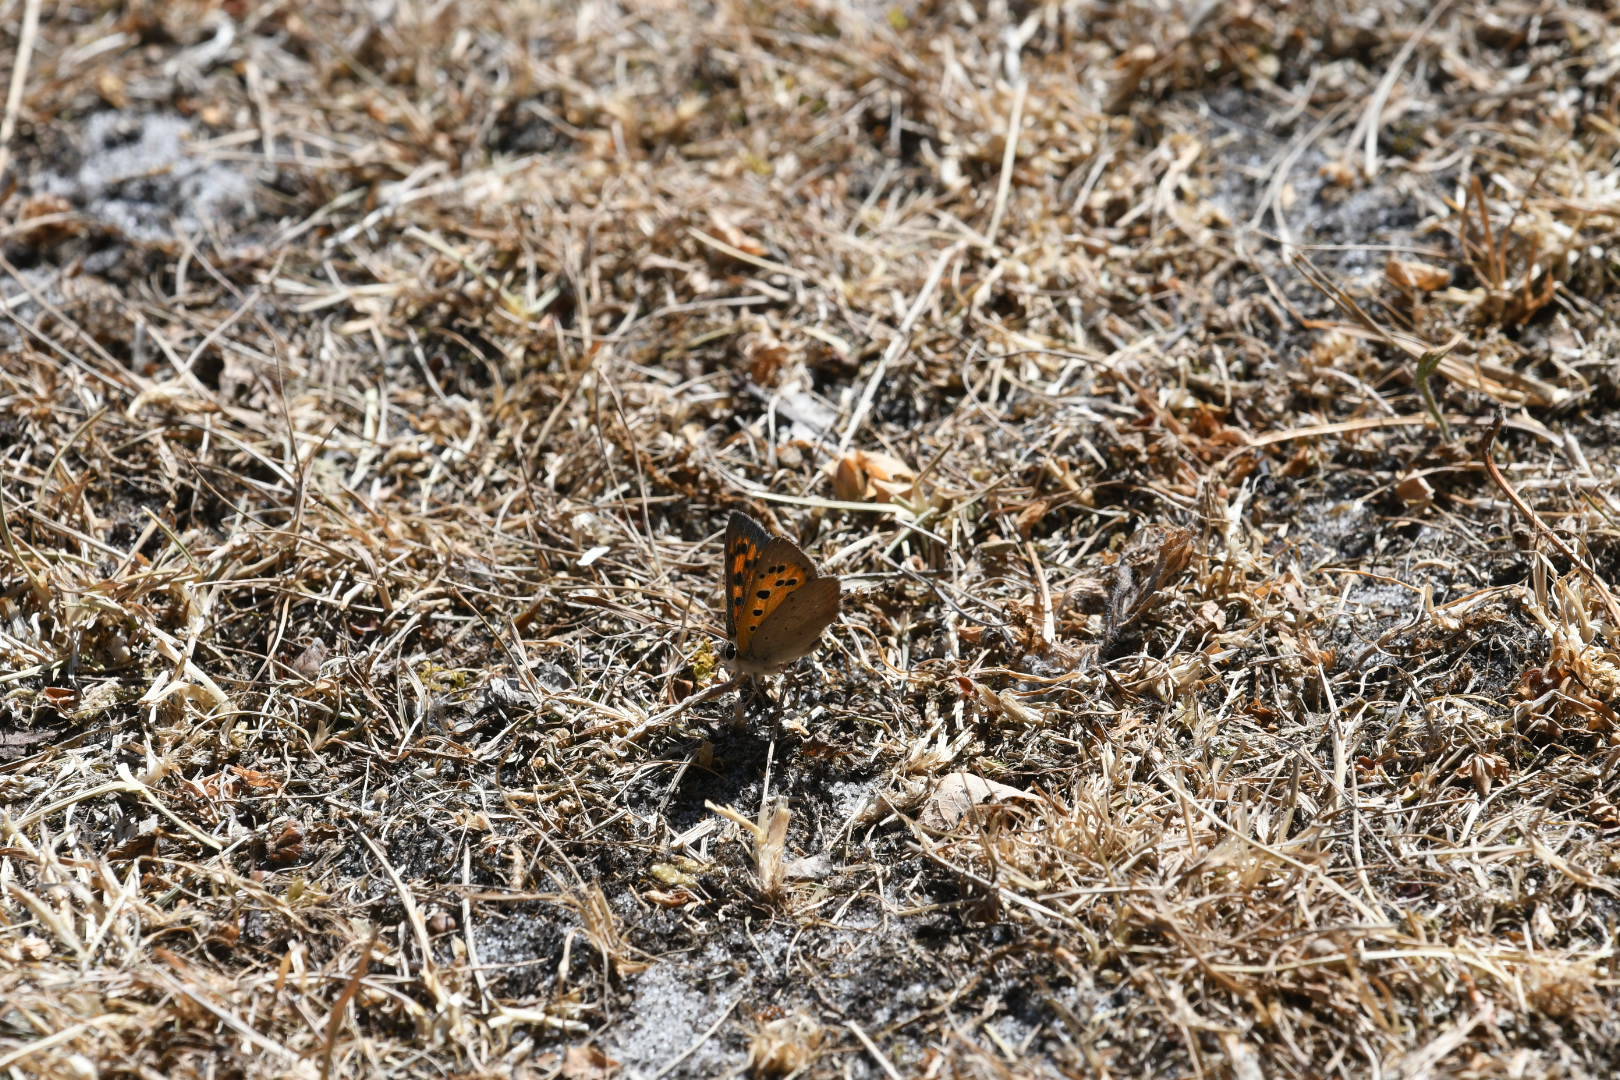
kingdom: Animalia
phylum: Arthropoda
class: Insecta
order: Lepidoptera
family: Lycaenidae
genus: Lycaena
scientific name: Lycaena phlaeas
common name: Small copper
